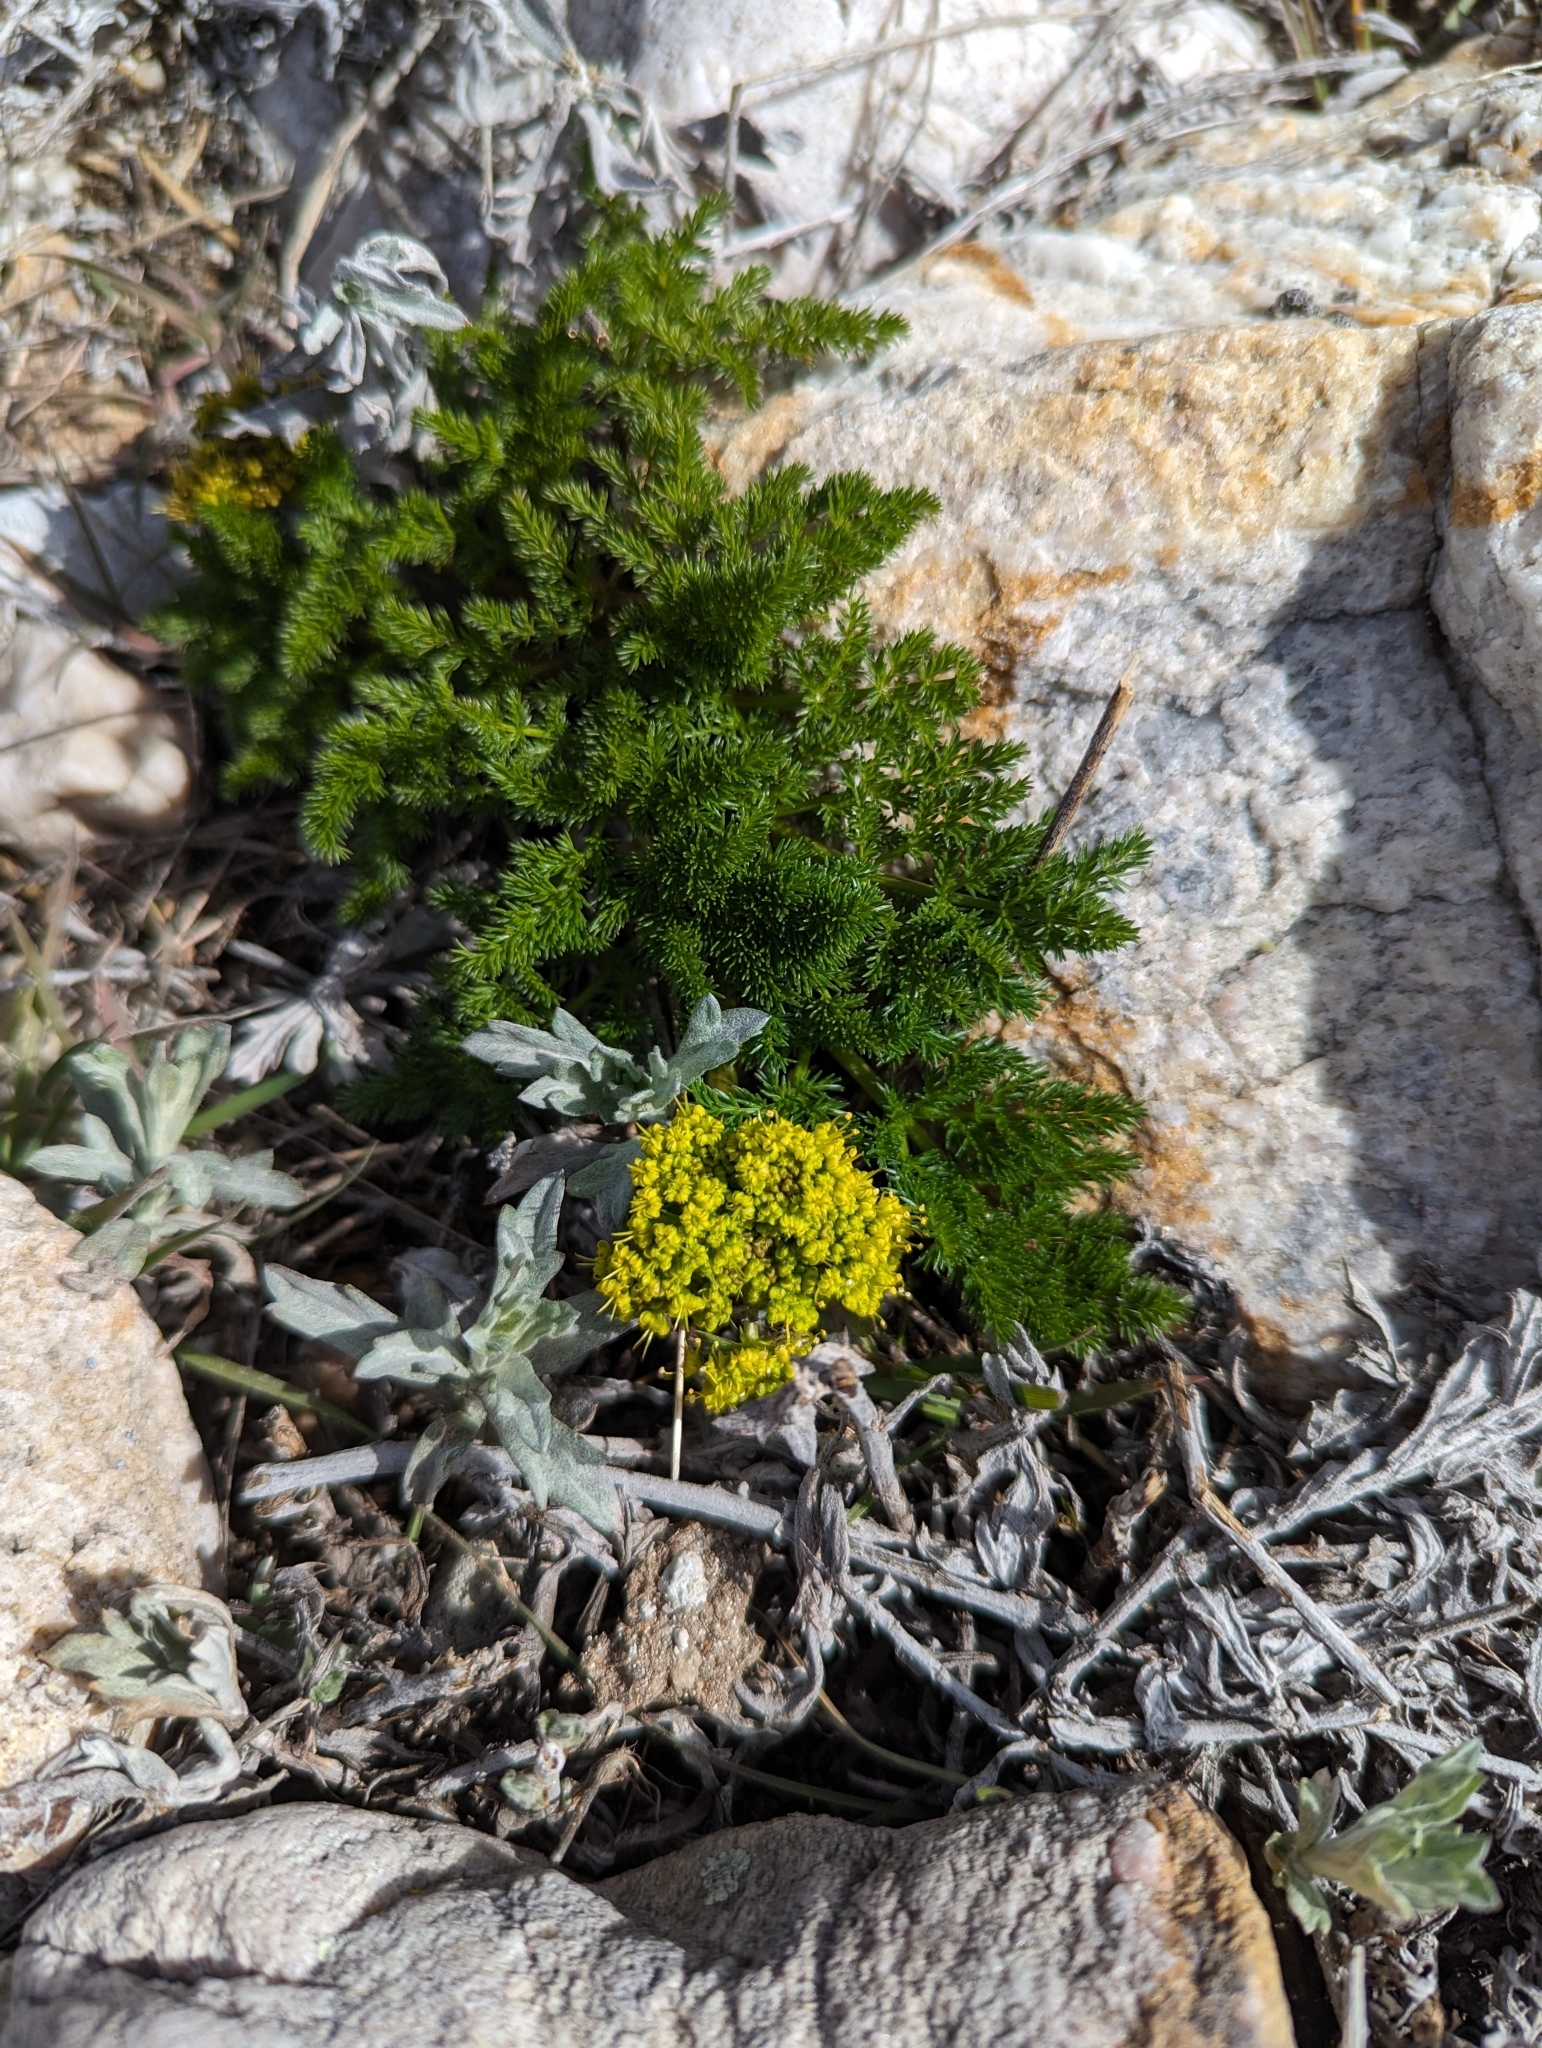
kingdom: Plantae
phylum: Tracheophyta
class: Magnoliopsida
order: Apiales
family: Apiaceae
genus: Lomatium
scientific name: Lomatium foeniculaceum
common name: Desert-parsley
